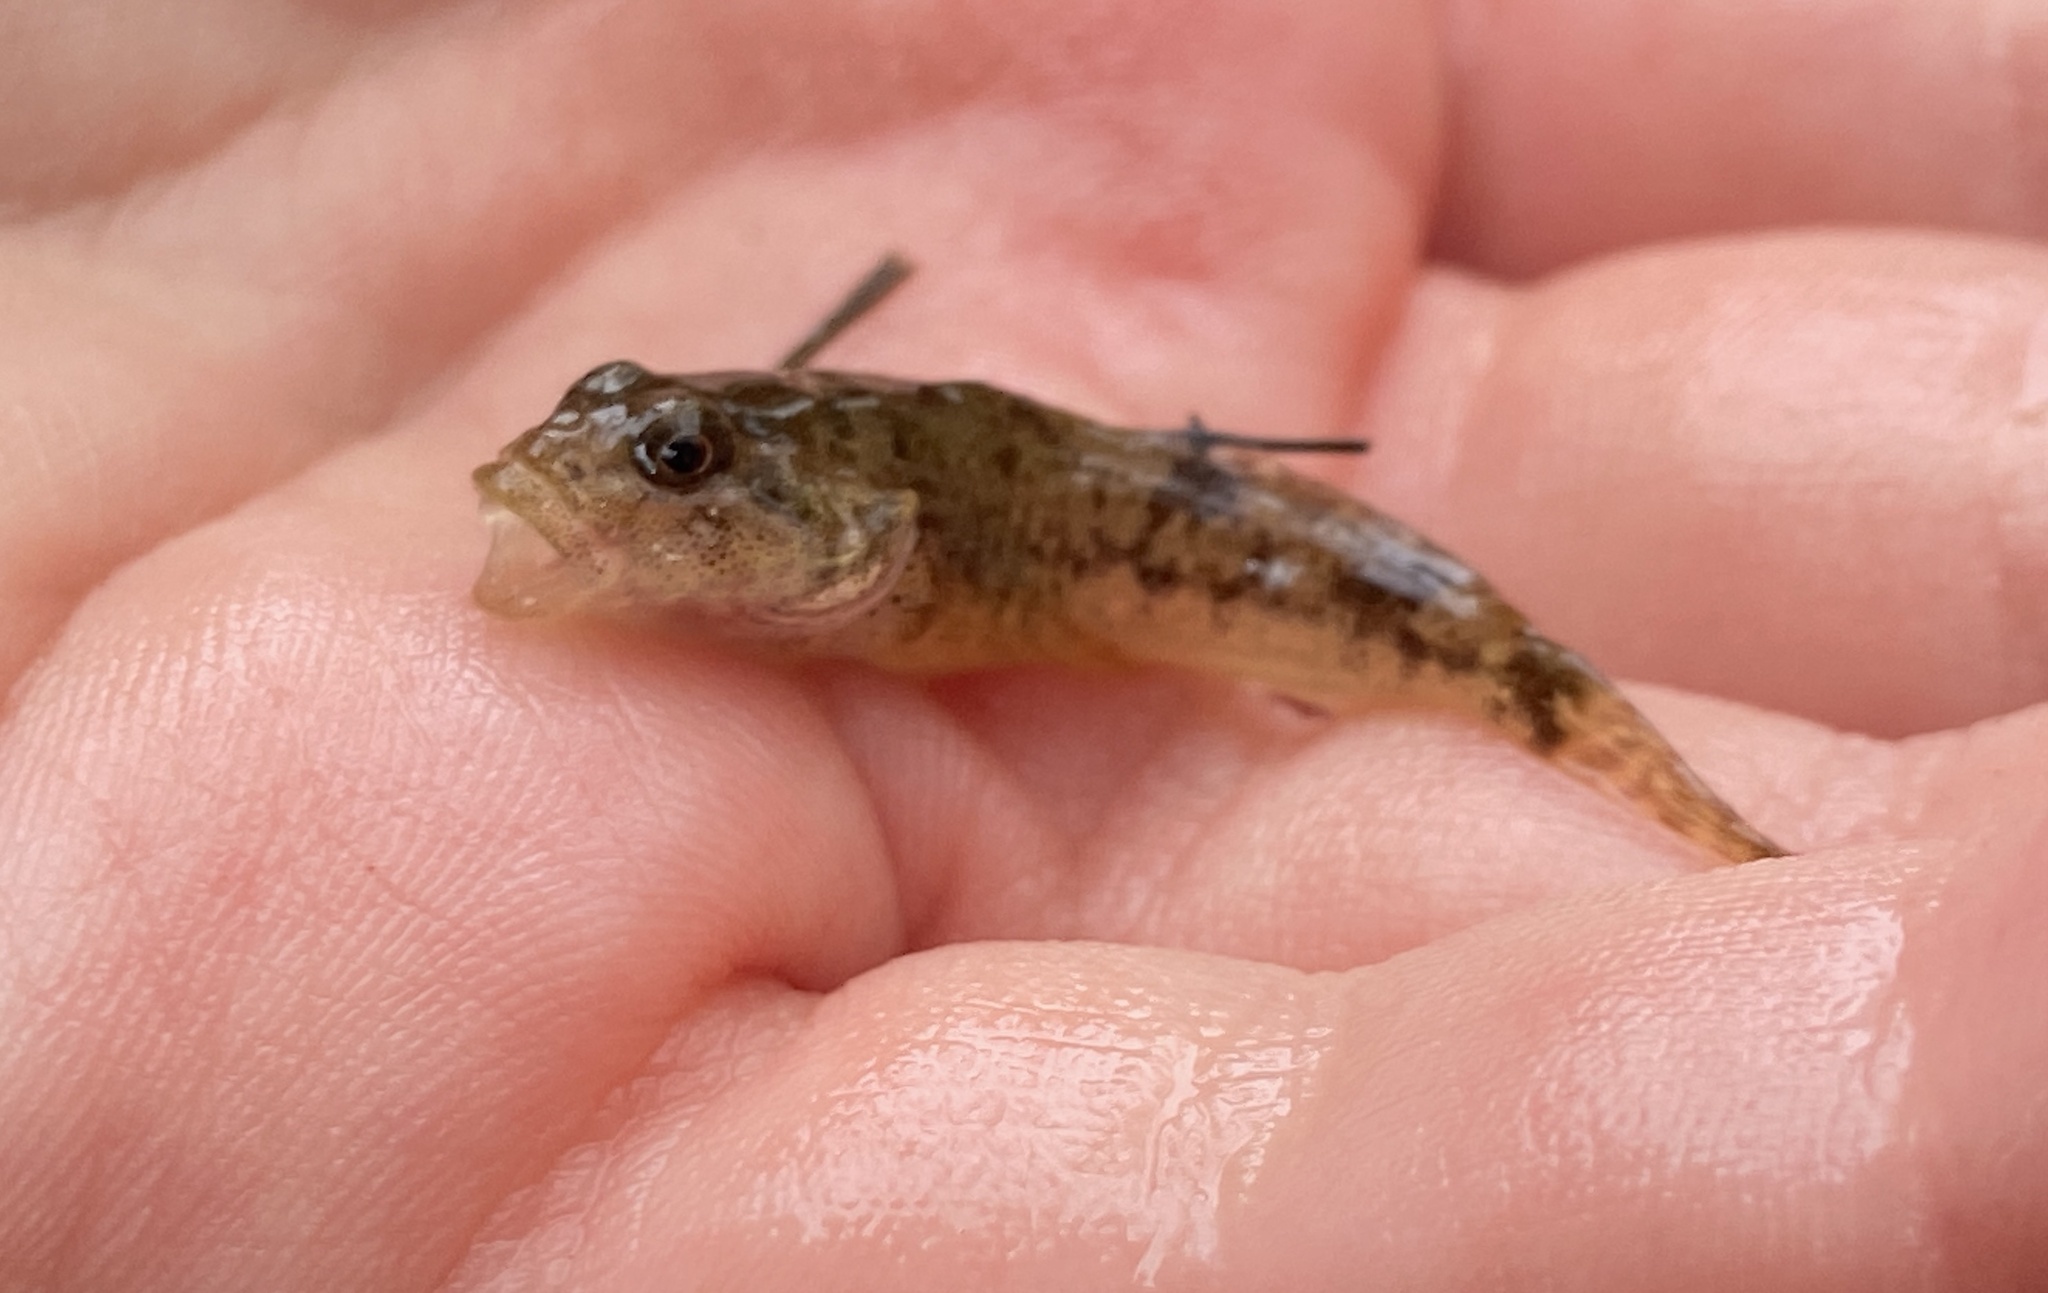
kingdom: Animalia
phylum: Chordata
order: Scorpaeniformes
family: Cottidae
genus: Cottus
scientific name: Cottus perifretum
